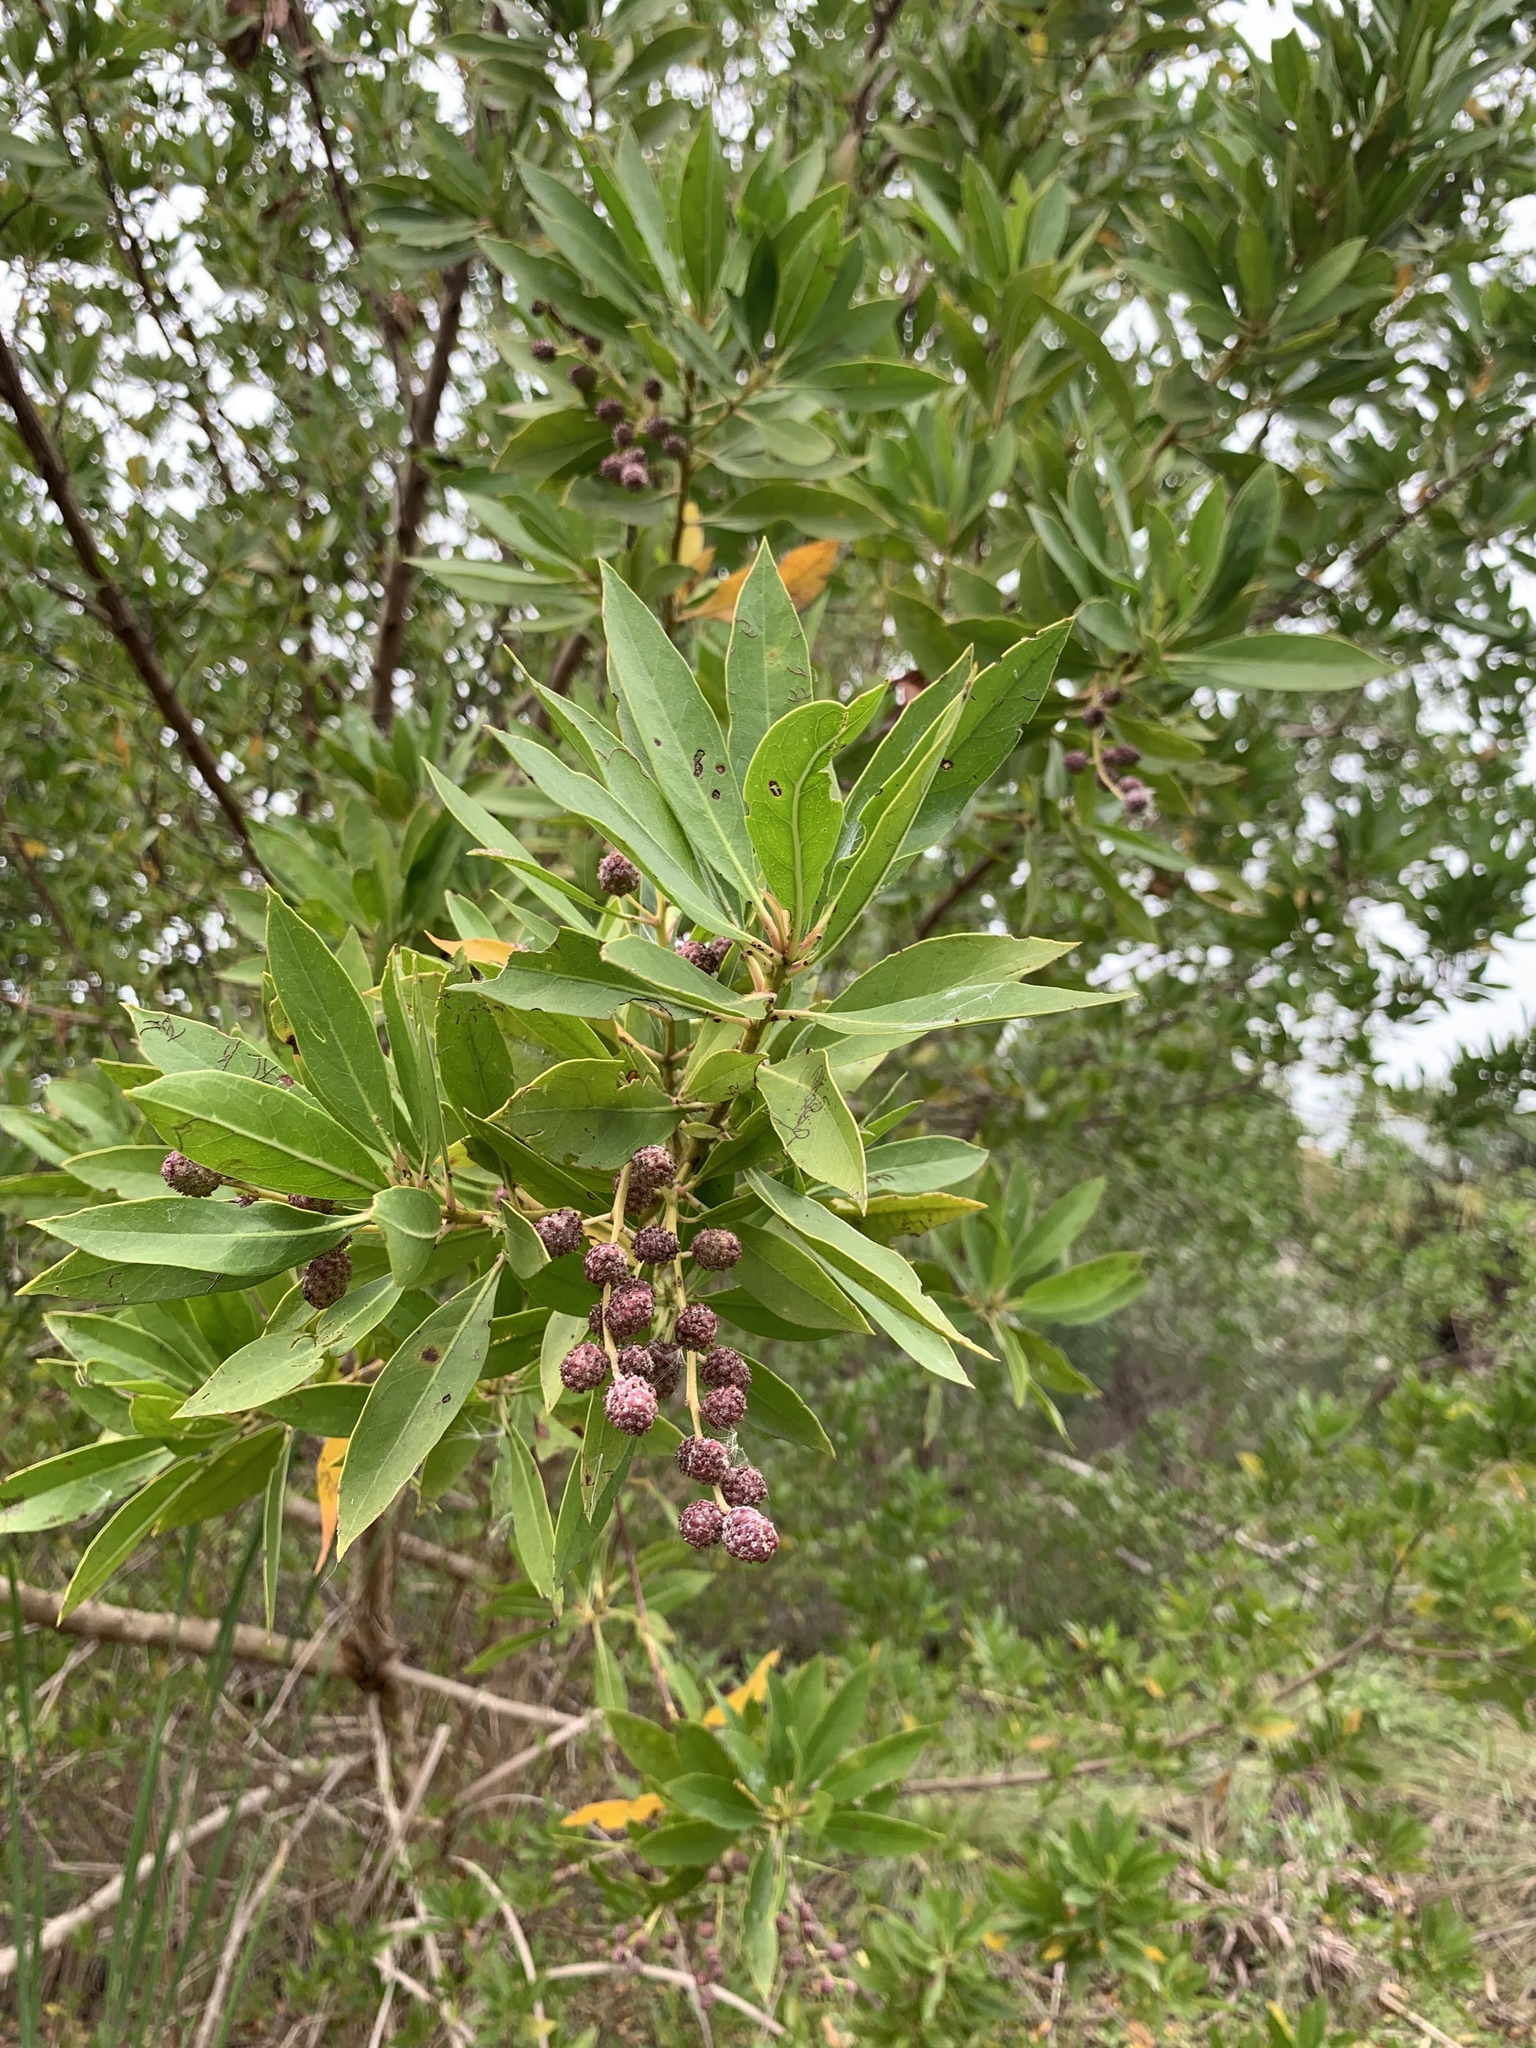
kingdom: Plantae
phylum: Tracheophyta
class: Magnoliopsida
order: Myrtales
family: Combretaceae
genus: Conocarpus
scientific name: Conocarpus erectus
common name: Button mangrove
